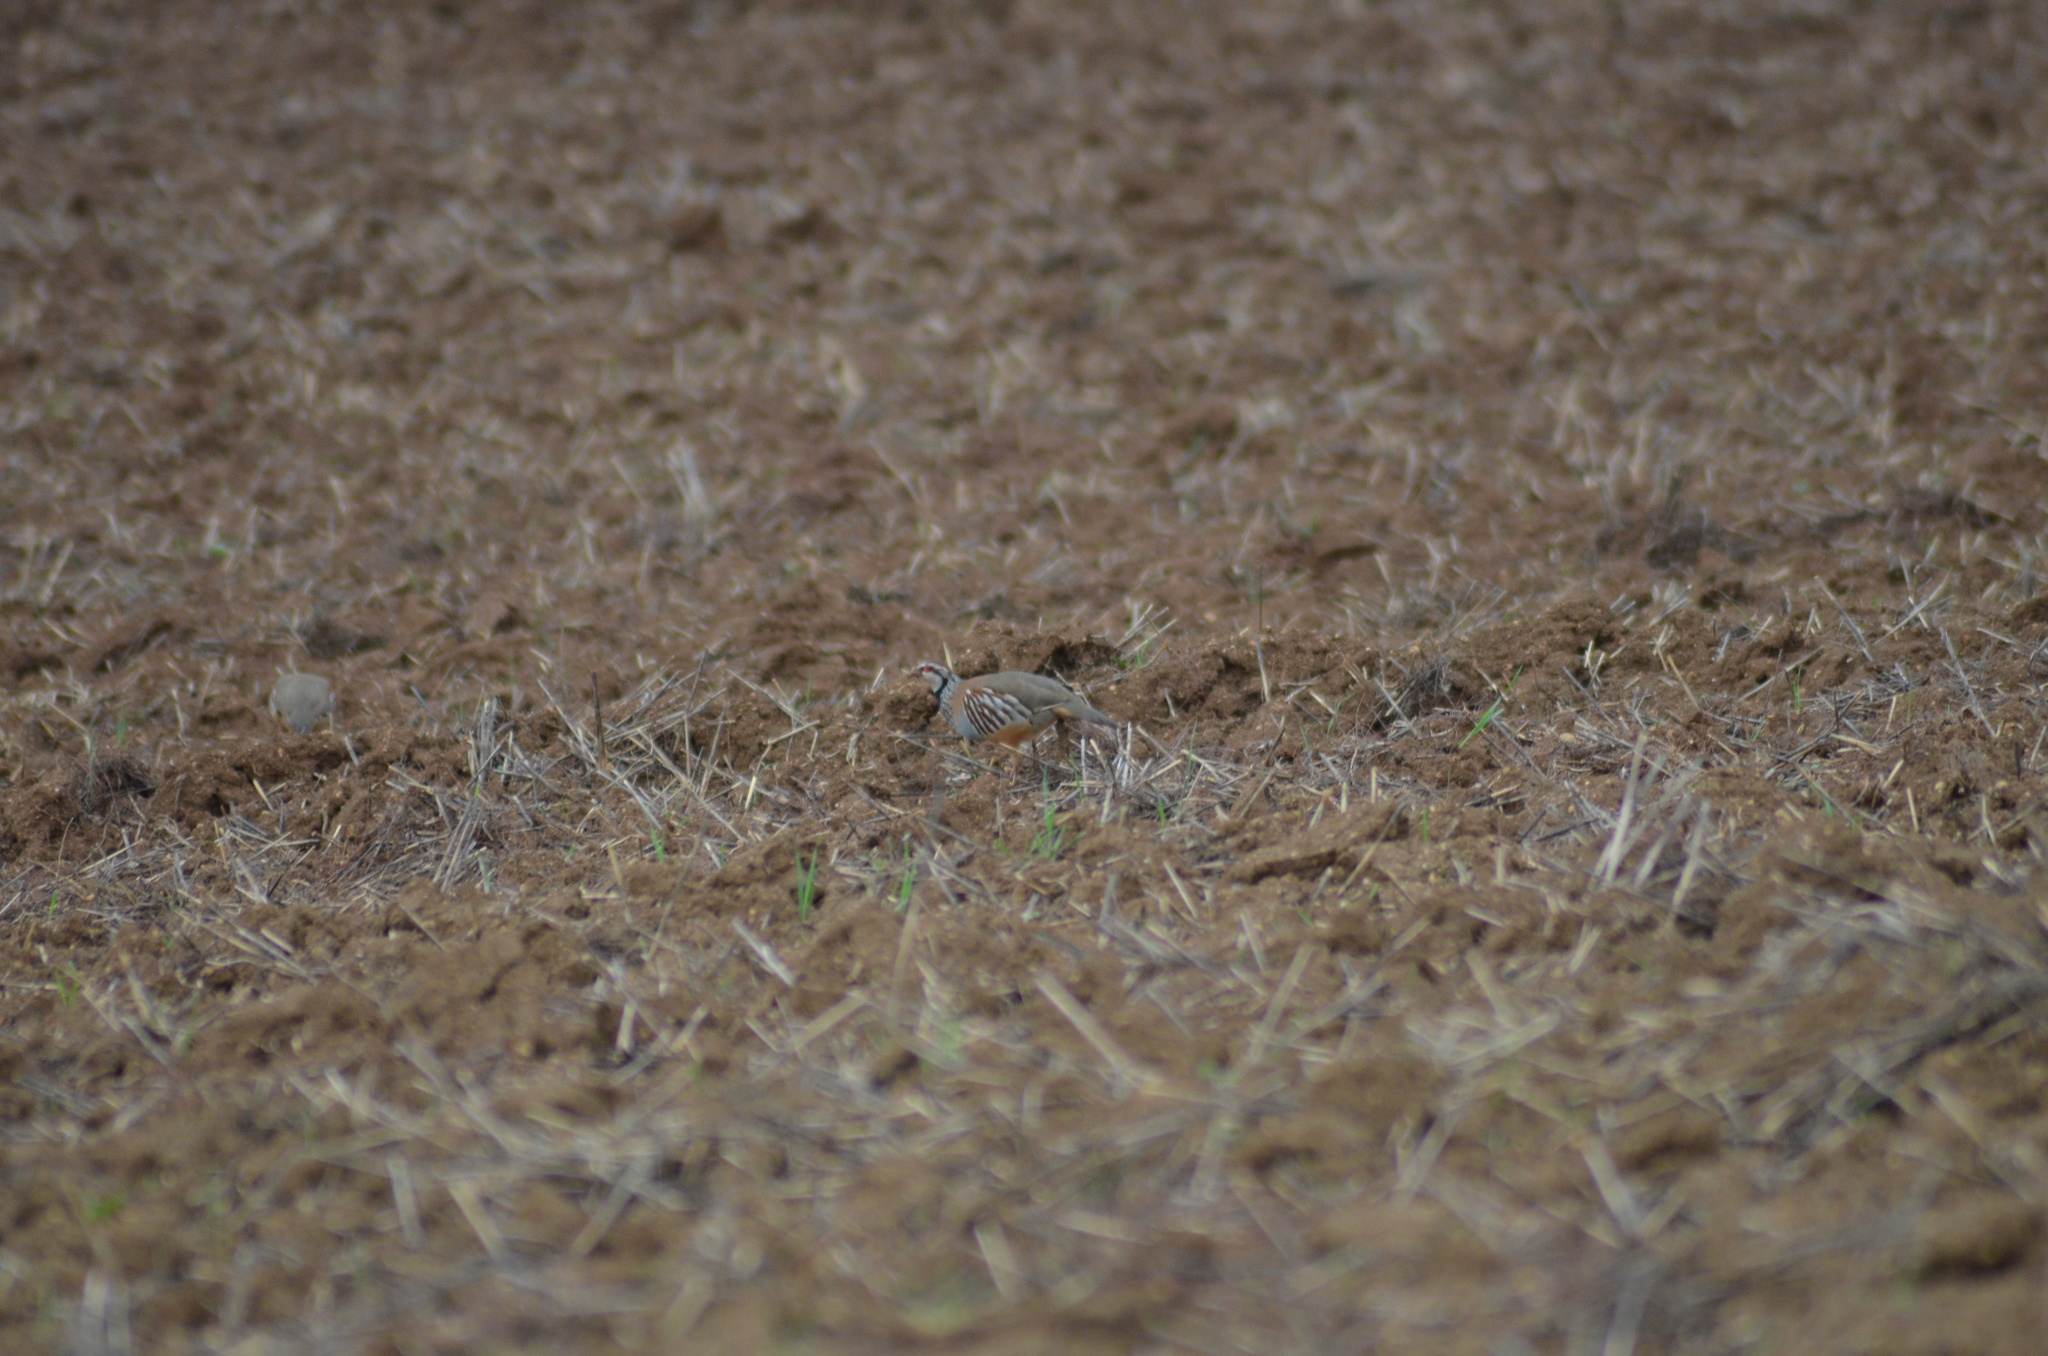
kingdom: Animalia
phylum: Chordata
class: Aves
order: Galliformes
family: Phasianidae
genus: Alectoris
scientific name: Alectoris rufa
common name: Red-legged partridge
